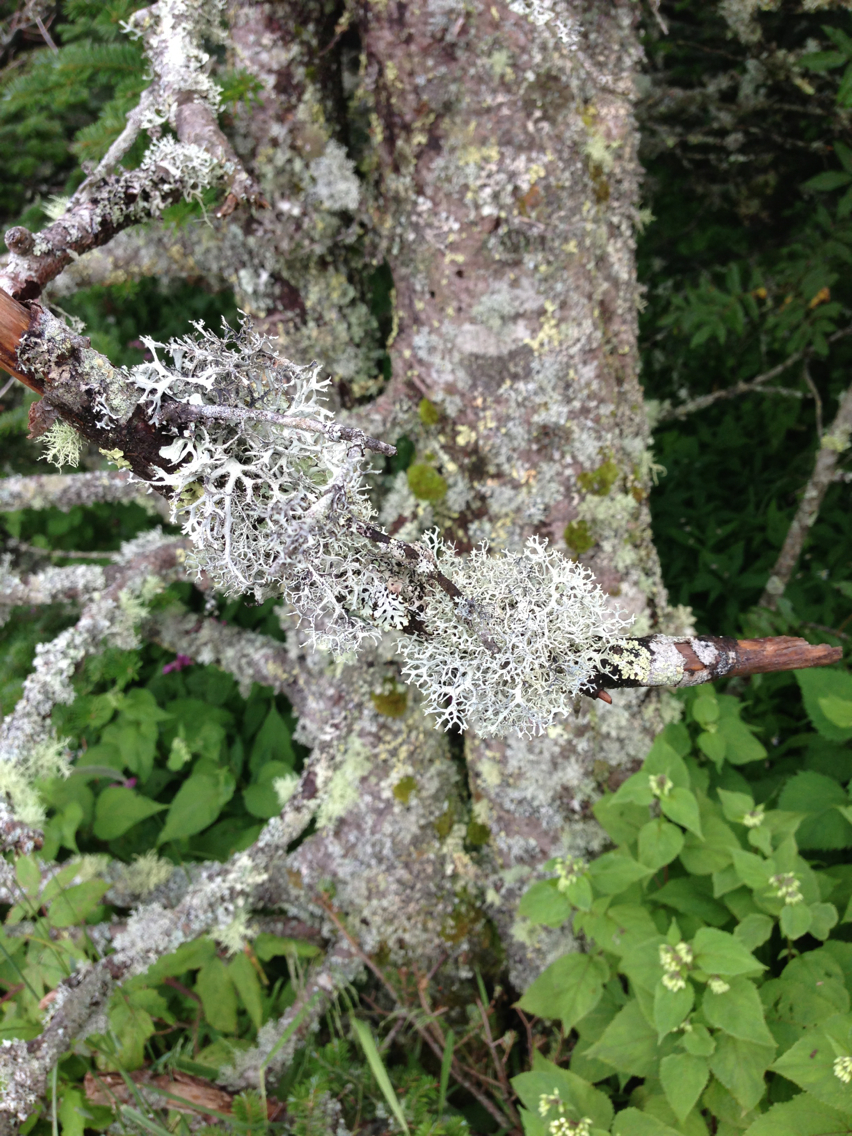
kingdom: Fungi
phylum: Ascomycota
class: Lecanoromycetes
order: Lecanorales
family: Parmeliaceae
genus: Pseudevernia
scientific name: Pseudevernia cladonia
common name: Light-and-dark lichen
